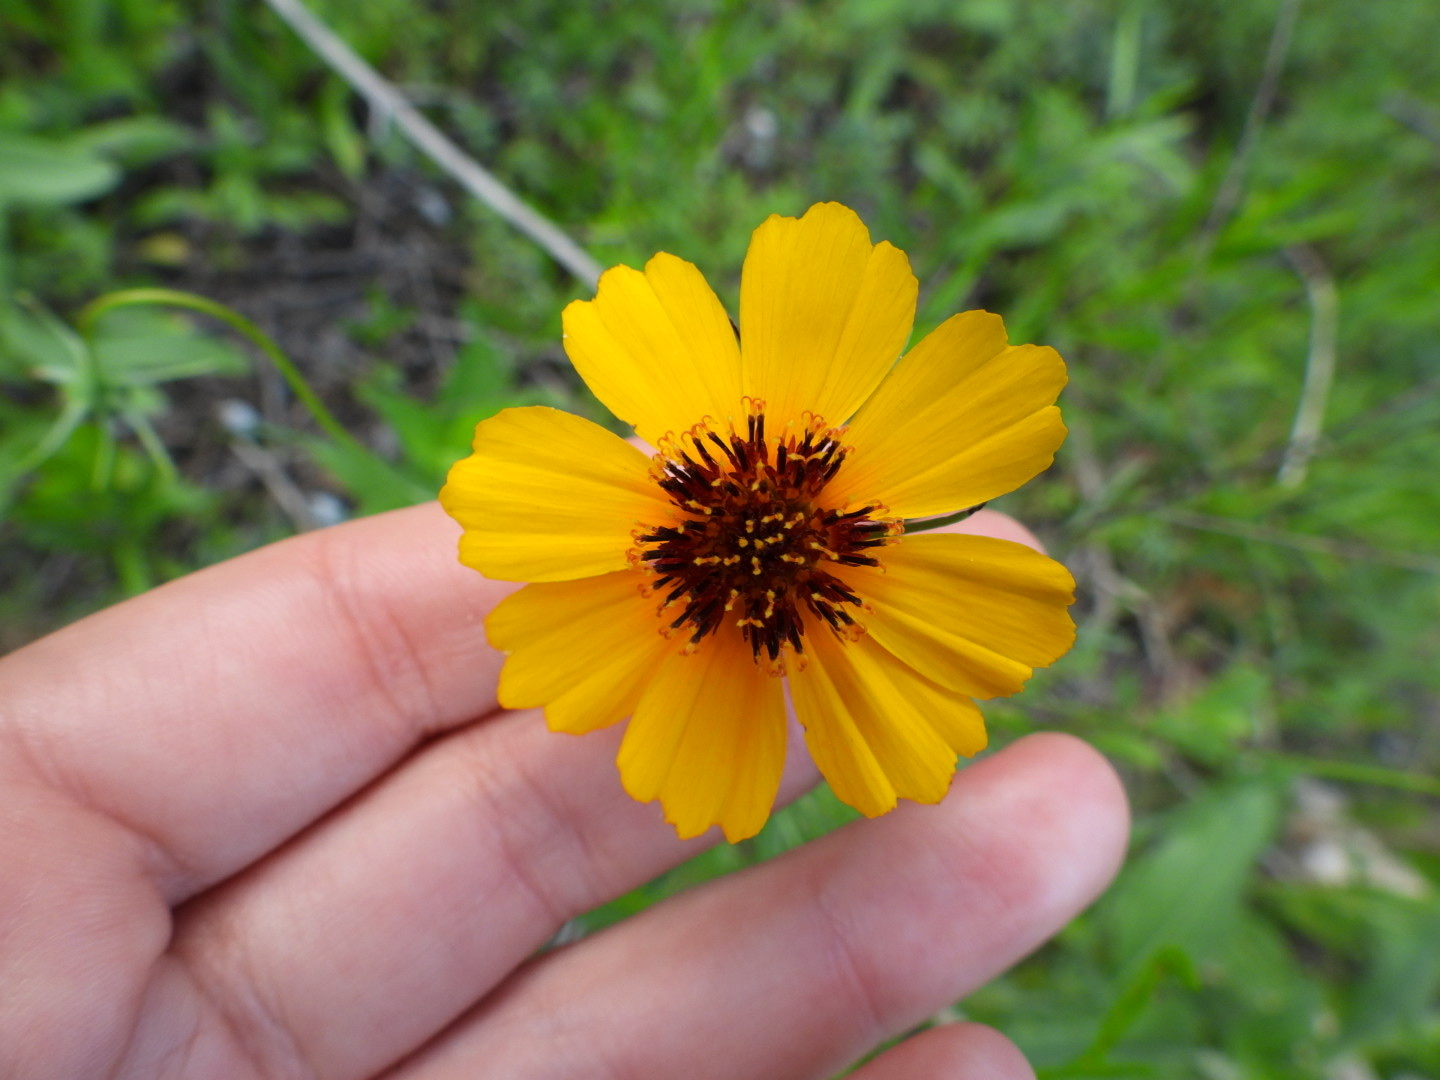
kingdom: Plantae
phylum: Tracheophyta
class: Magnoliopsida
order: Asterales
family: Asteraceae
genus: Thelesperma
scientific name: Thelesperma filifolium
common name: Stiff greenthread
